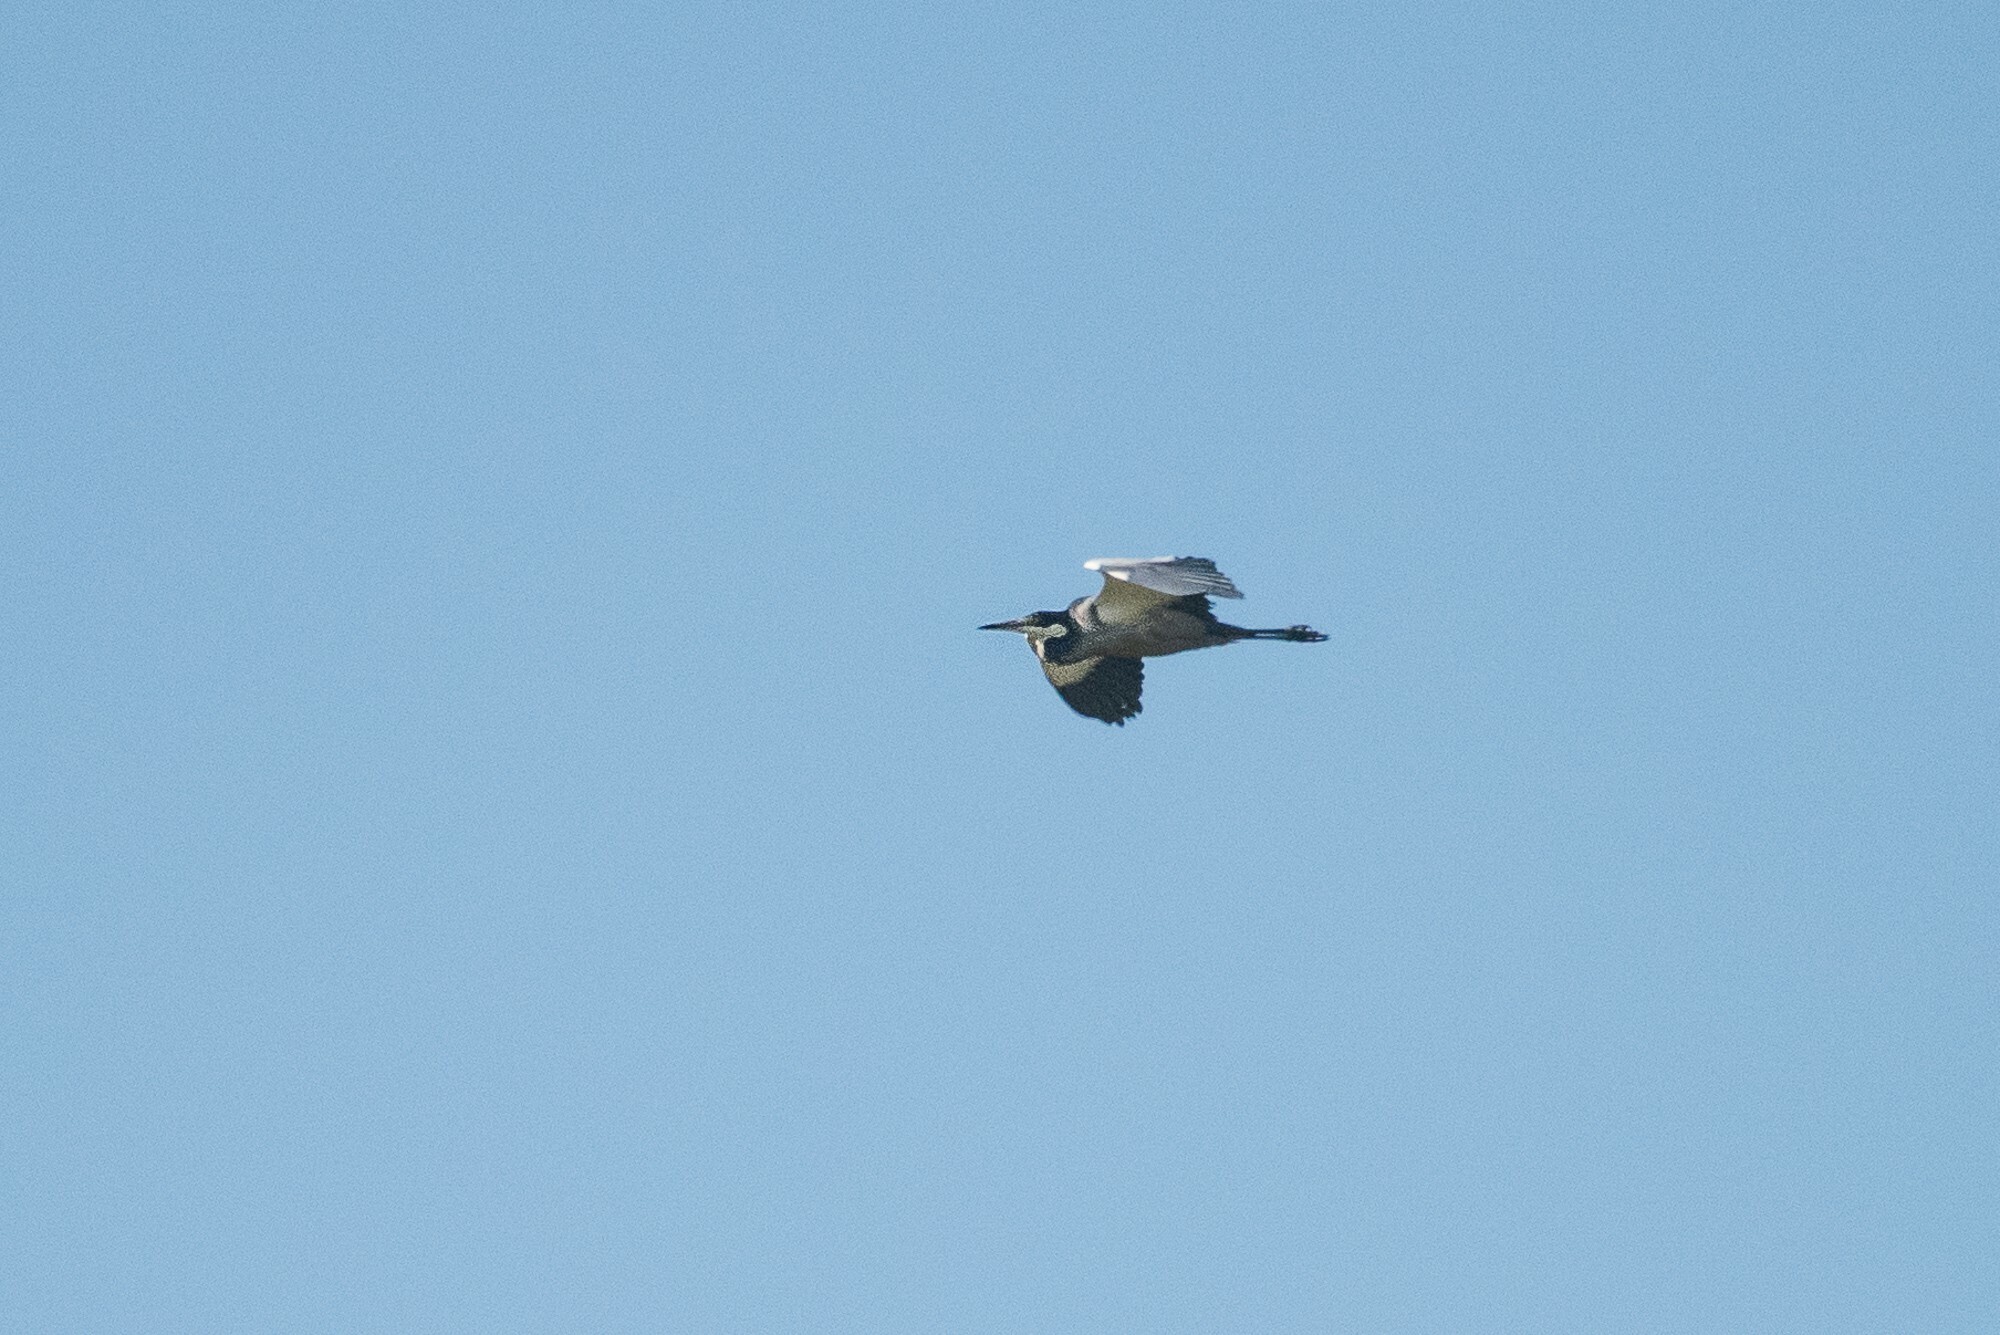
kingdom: Animalia
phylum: Chordata
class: Aves
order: Pelecaniformes
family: Ardeidae
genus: Ardea
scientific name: Ardea melanocephala
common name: Black-headed heron
